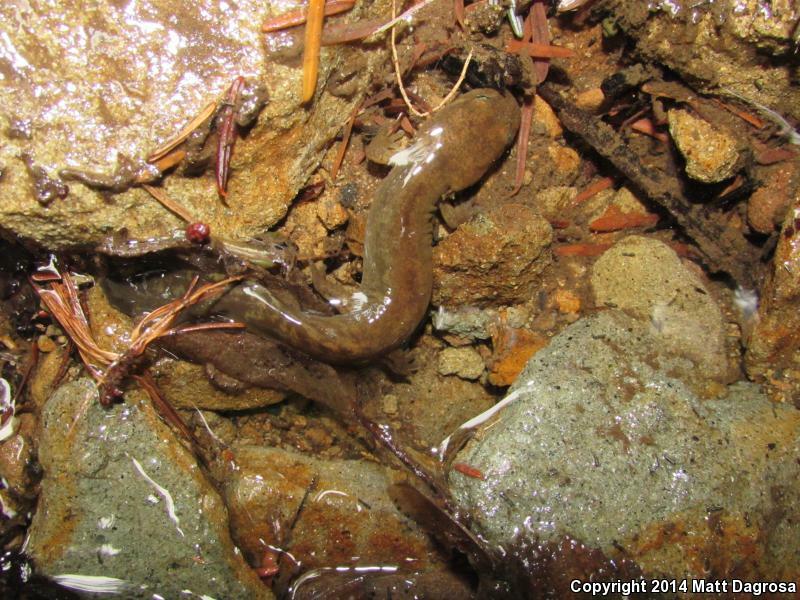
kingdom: Animalia
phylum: Chordata
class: Amphibia
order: Caudata
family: Ambystomatidae
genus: Dicamptodon
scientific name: Dicamptodon tenebrosus
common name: Coastal giant salamander
